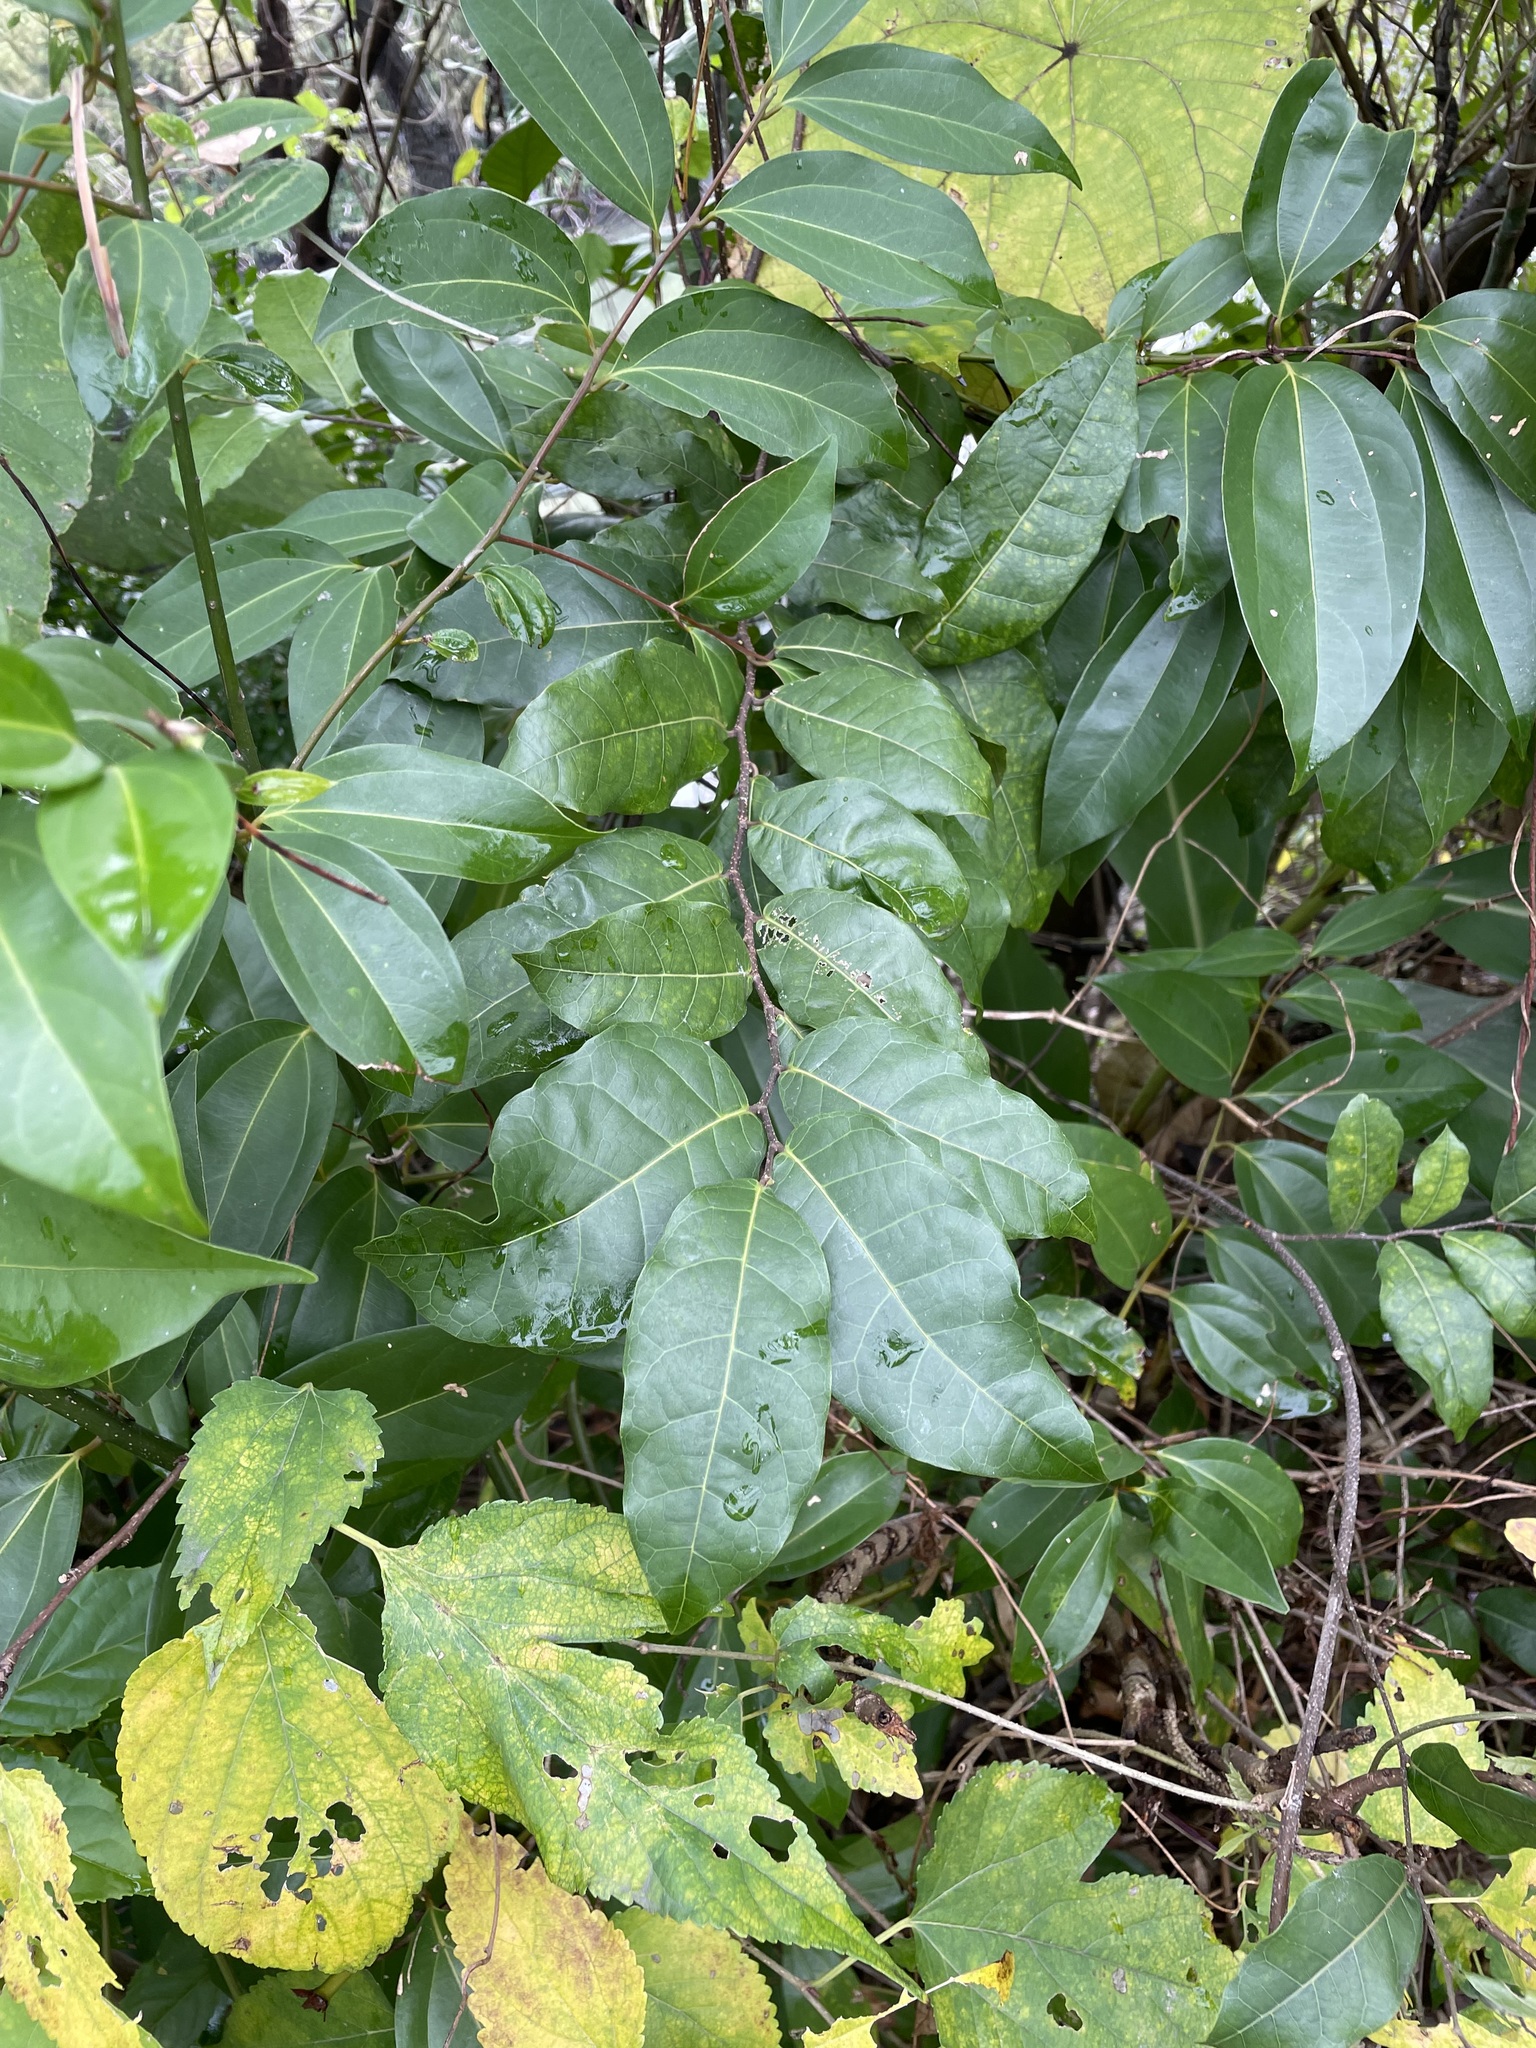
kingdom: Plantae
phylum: Tracheophyta
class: Magnoliopsida
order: Rosales
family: Moraceae
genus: Malaisia
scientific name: Malaisia scandens
